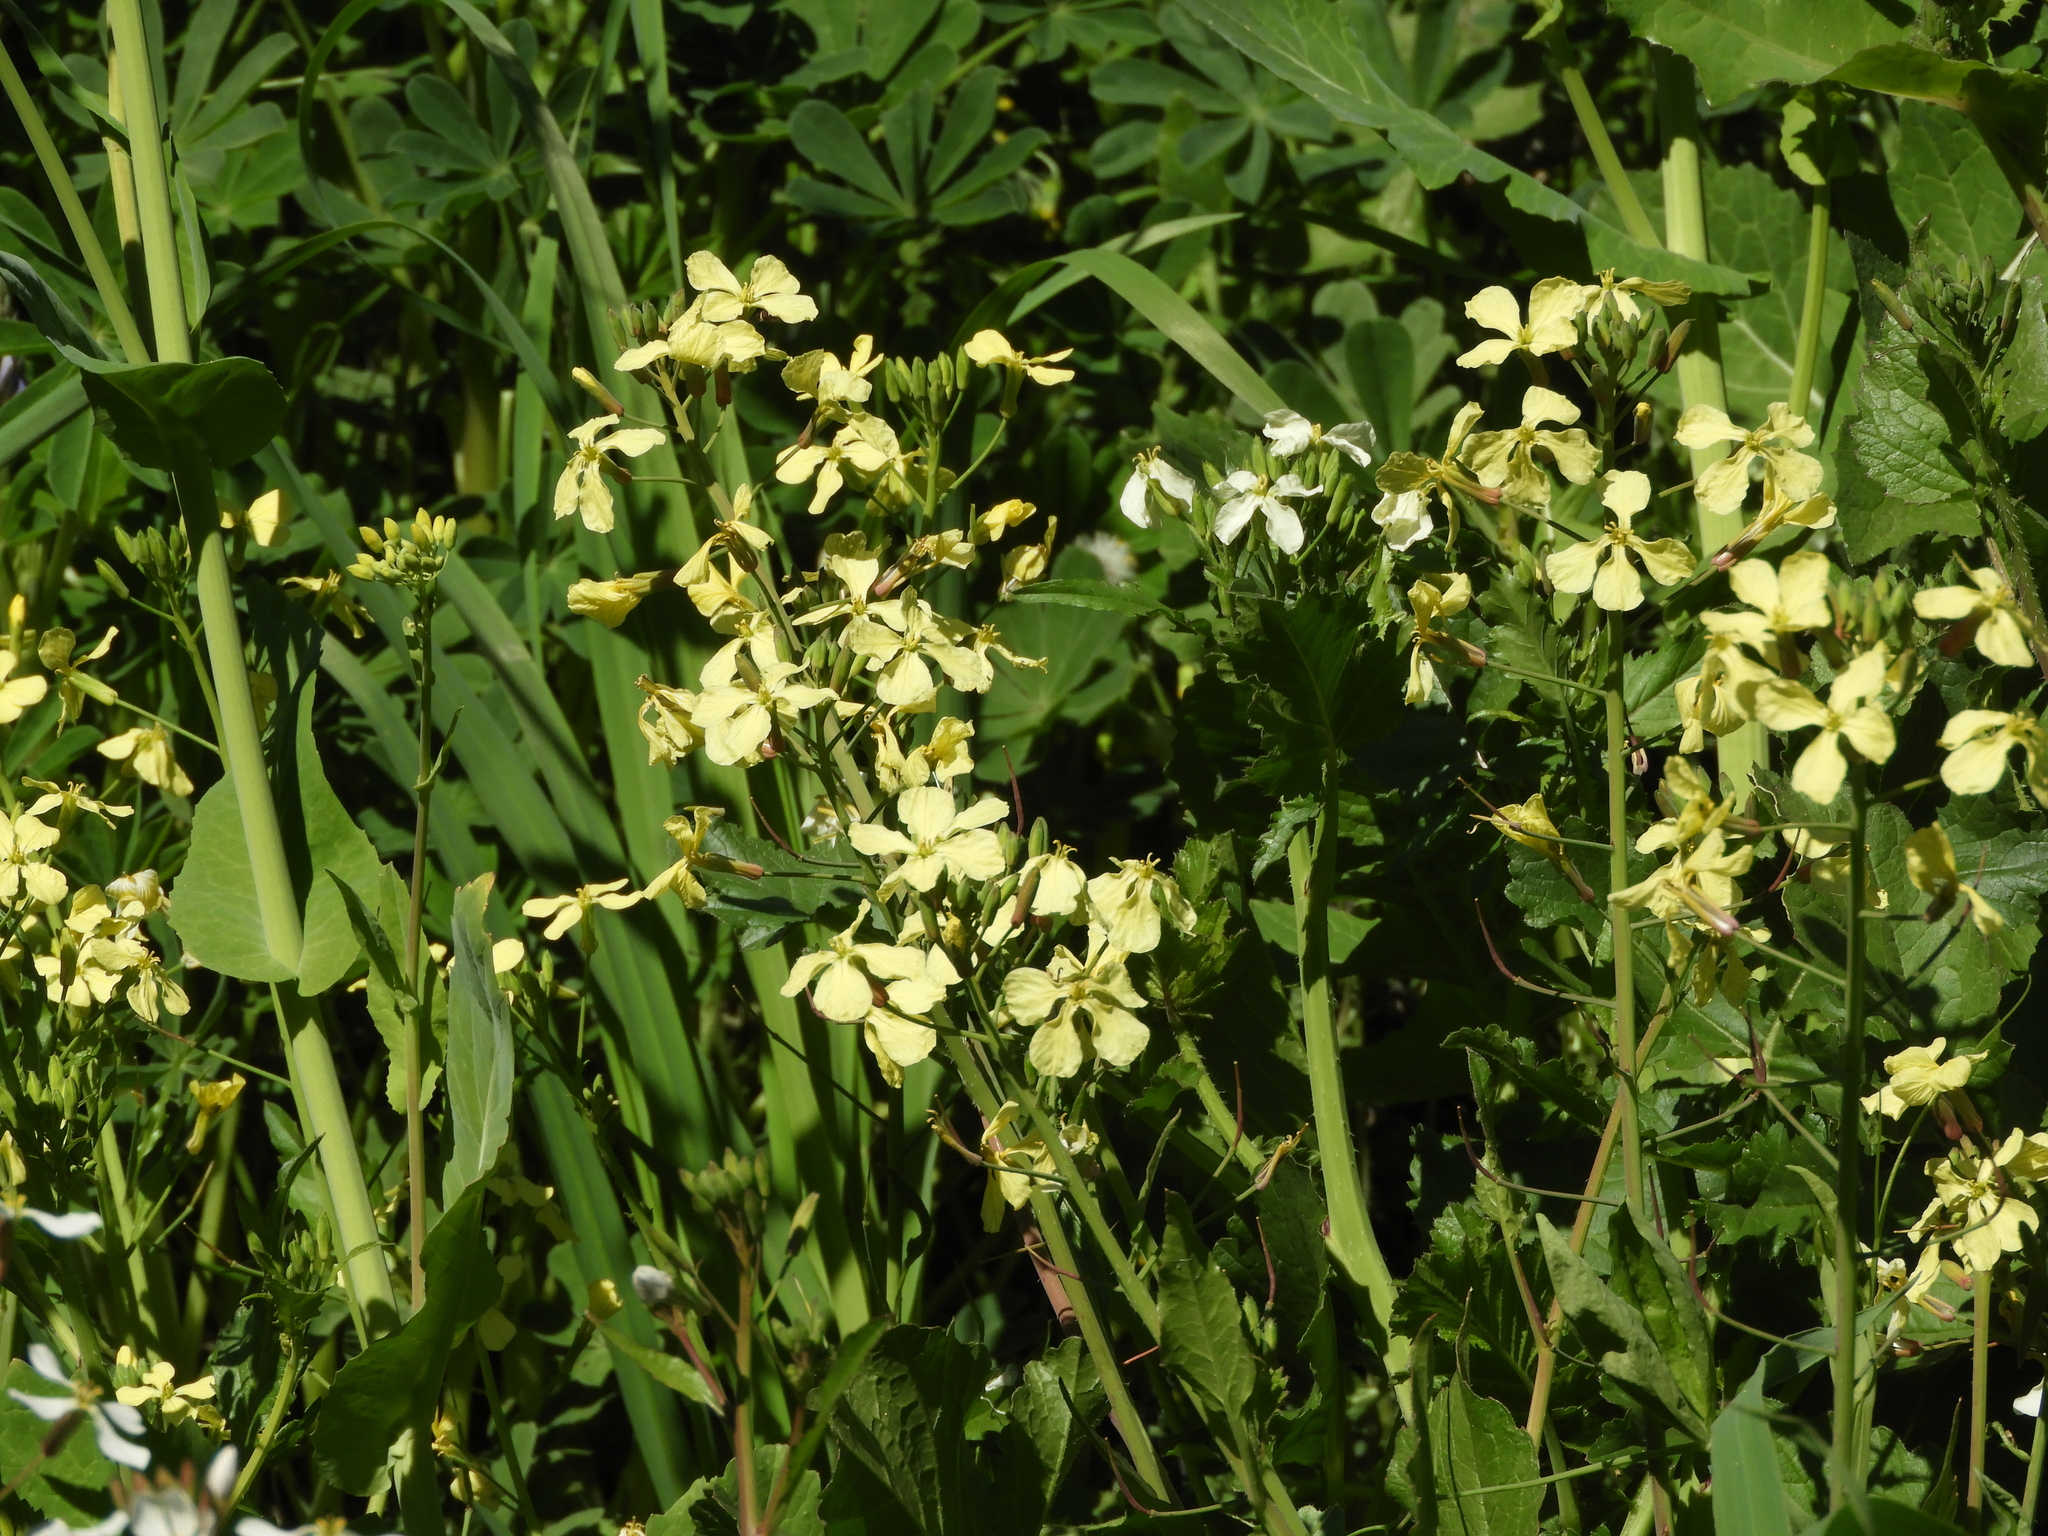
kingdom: Plantae
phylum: Tracheophyta
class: Magnoliopsida
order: Brassicales
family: Brassicaceae
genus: Raphanus
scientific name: Raphanus raphanistrum
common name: Wild radish
